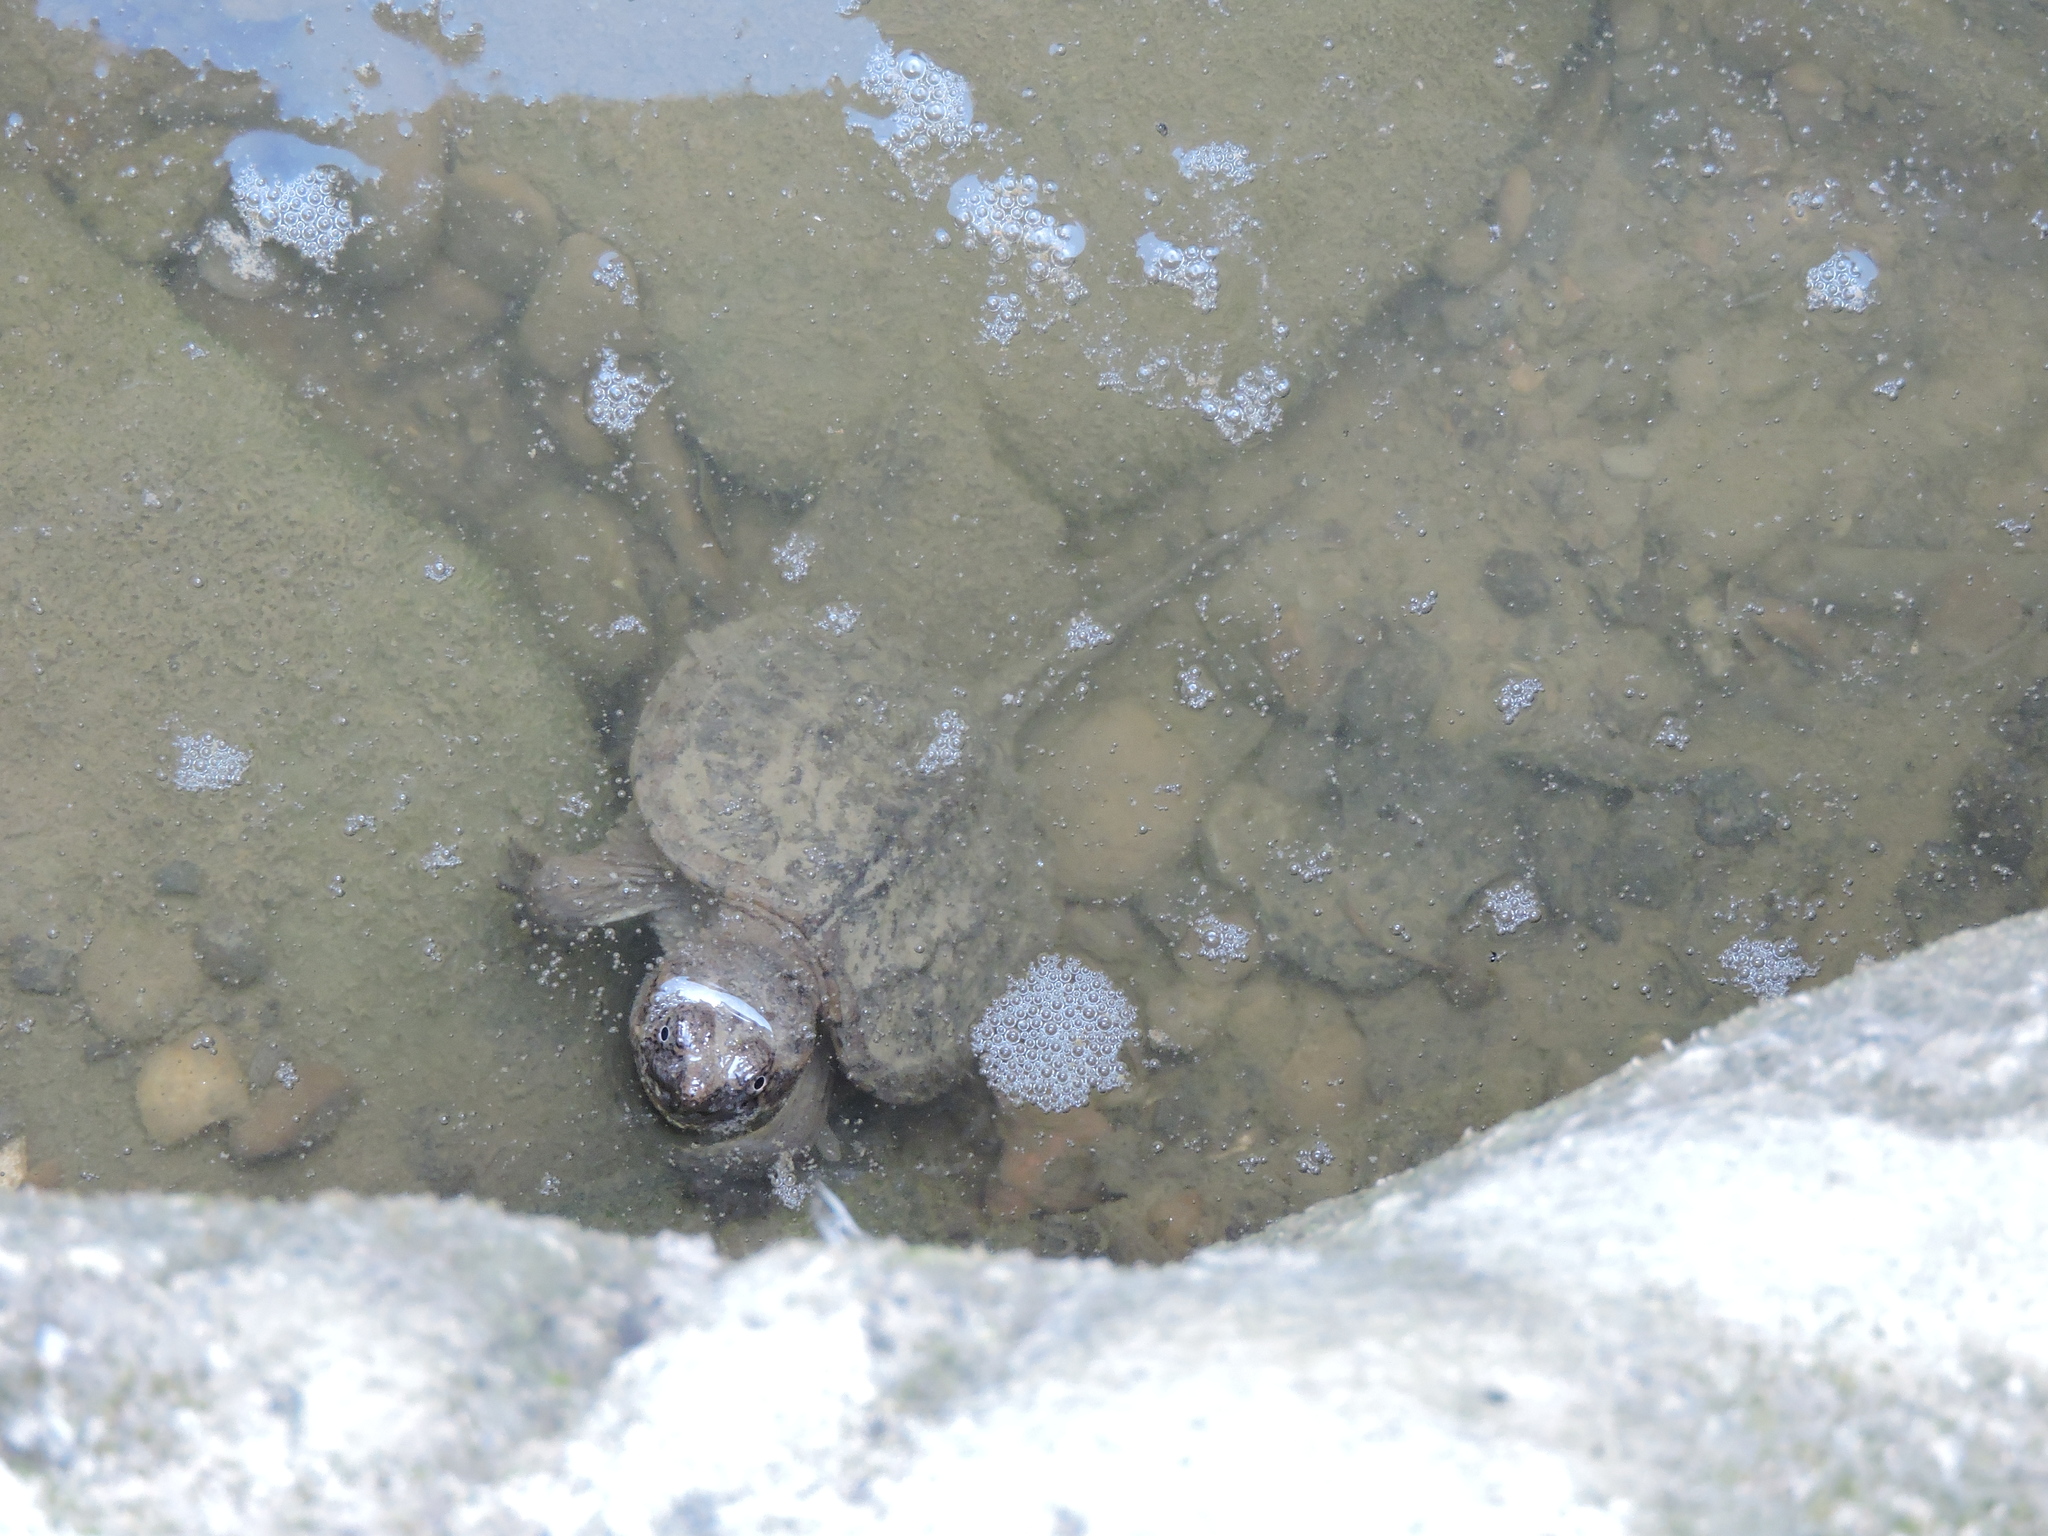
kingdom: Animalia
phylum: Chordata
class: Testudines
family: Chelydridae
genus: Chelydra
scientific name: Chelydra serpentina
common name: Common snapping turtle
